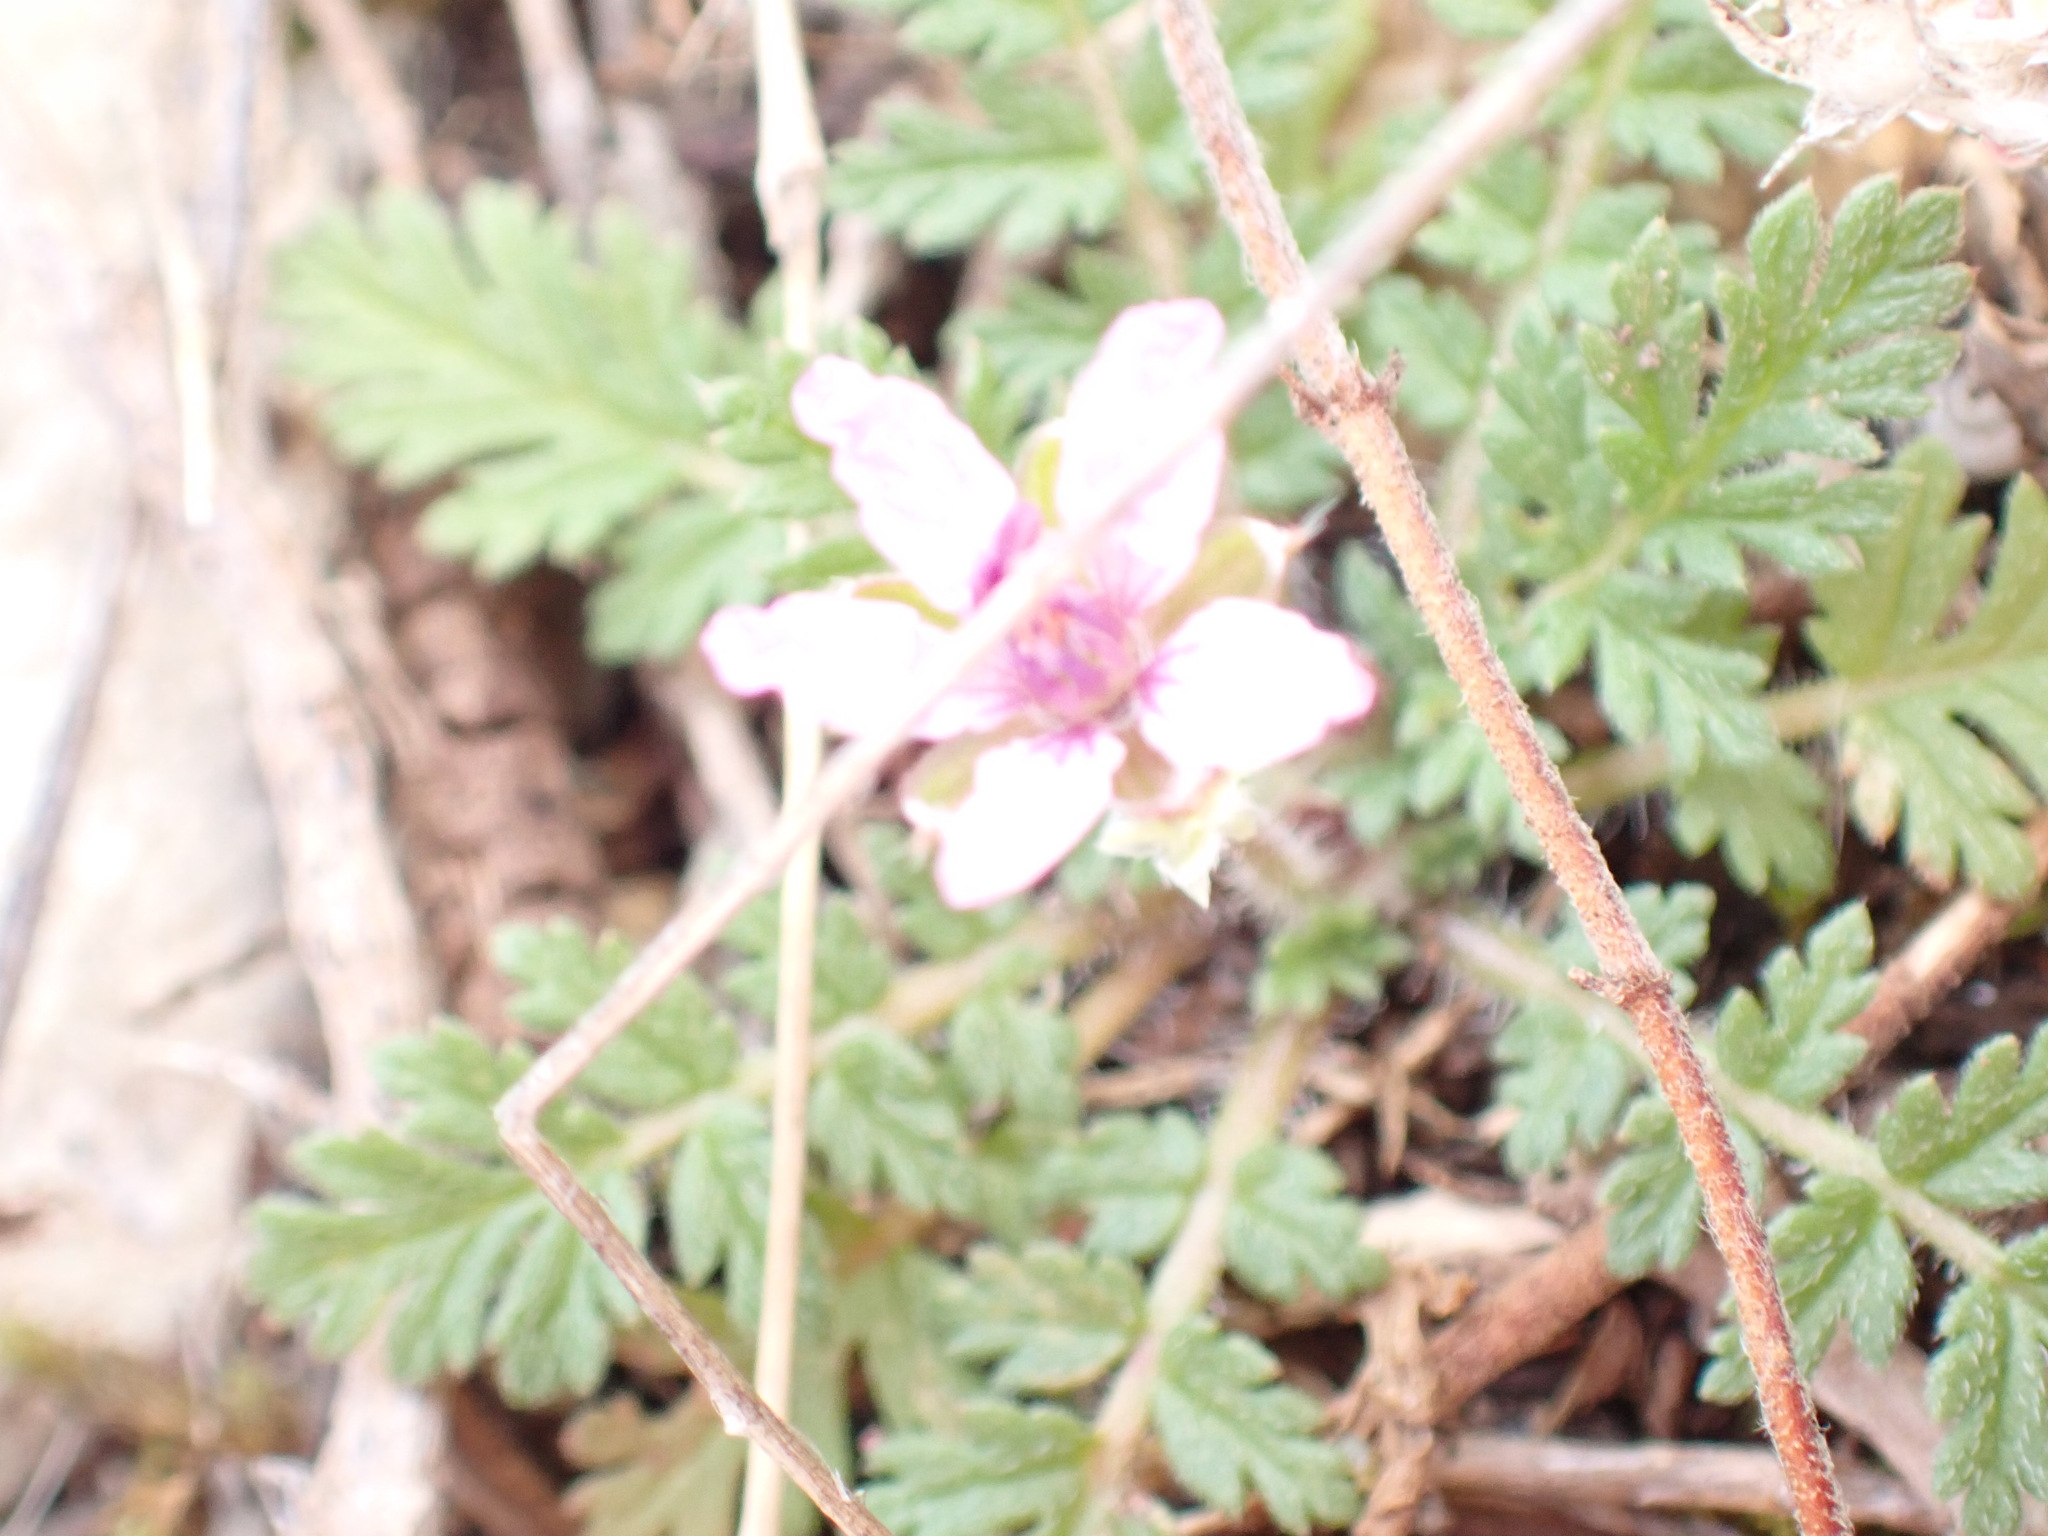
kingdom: Plantae
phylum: Tracheophyta
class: Magnoliopsida
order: Geraniales
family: Geraniaceae
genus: Erodium
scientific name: Erodium cicutarium
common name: Common stork's-bill
